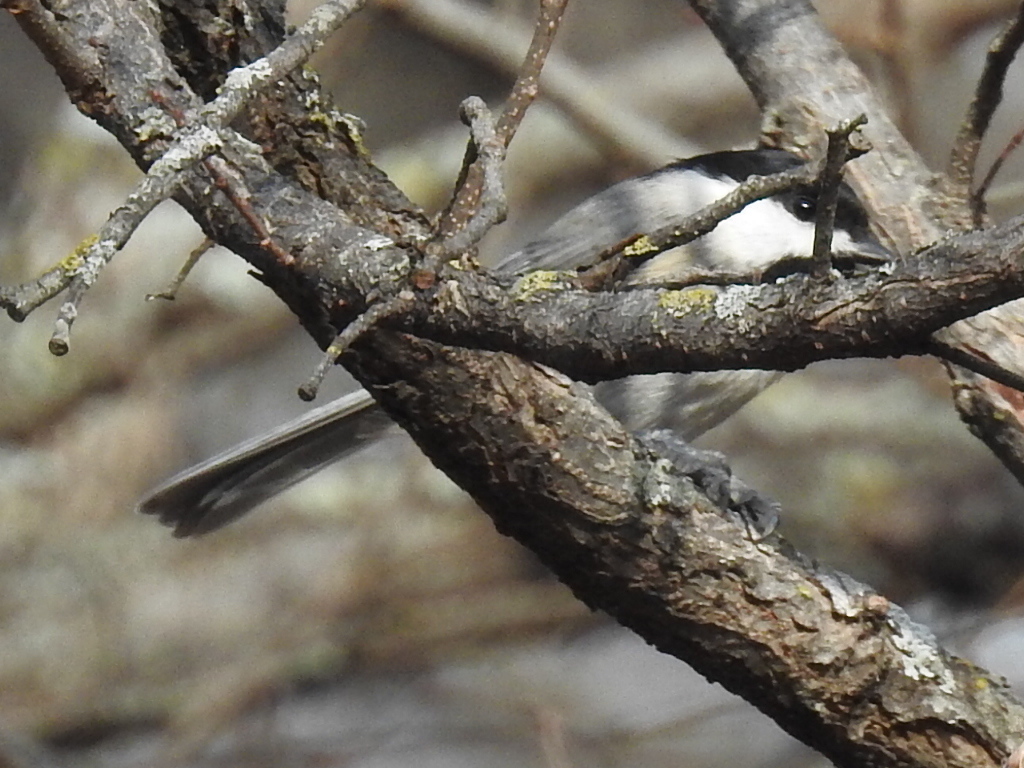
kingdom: Animalia
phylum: Chordata
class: Aves
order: Passeriformes
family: Paridae
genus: Poecile
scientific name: Poecile carolinensis
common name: Carolina chickadee
